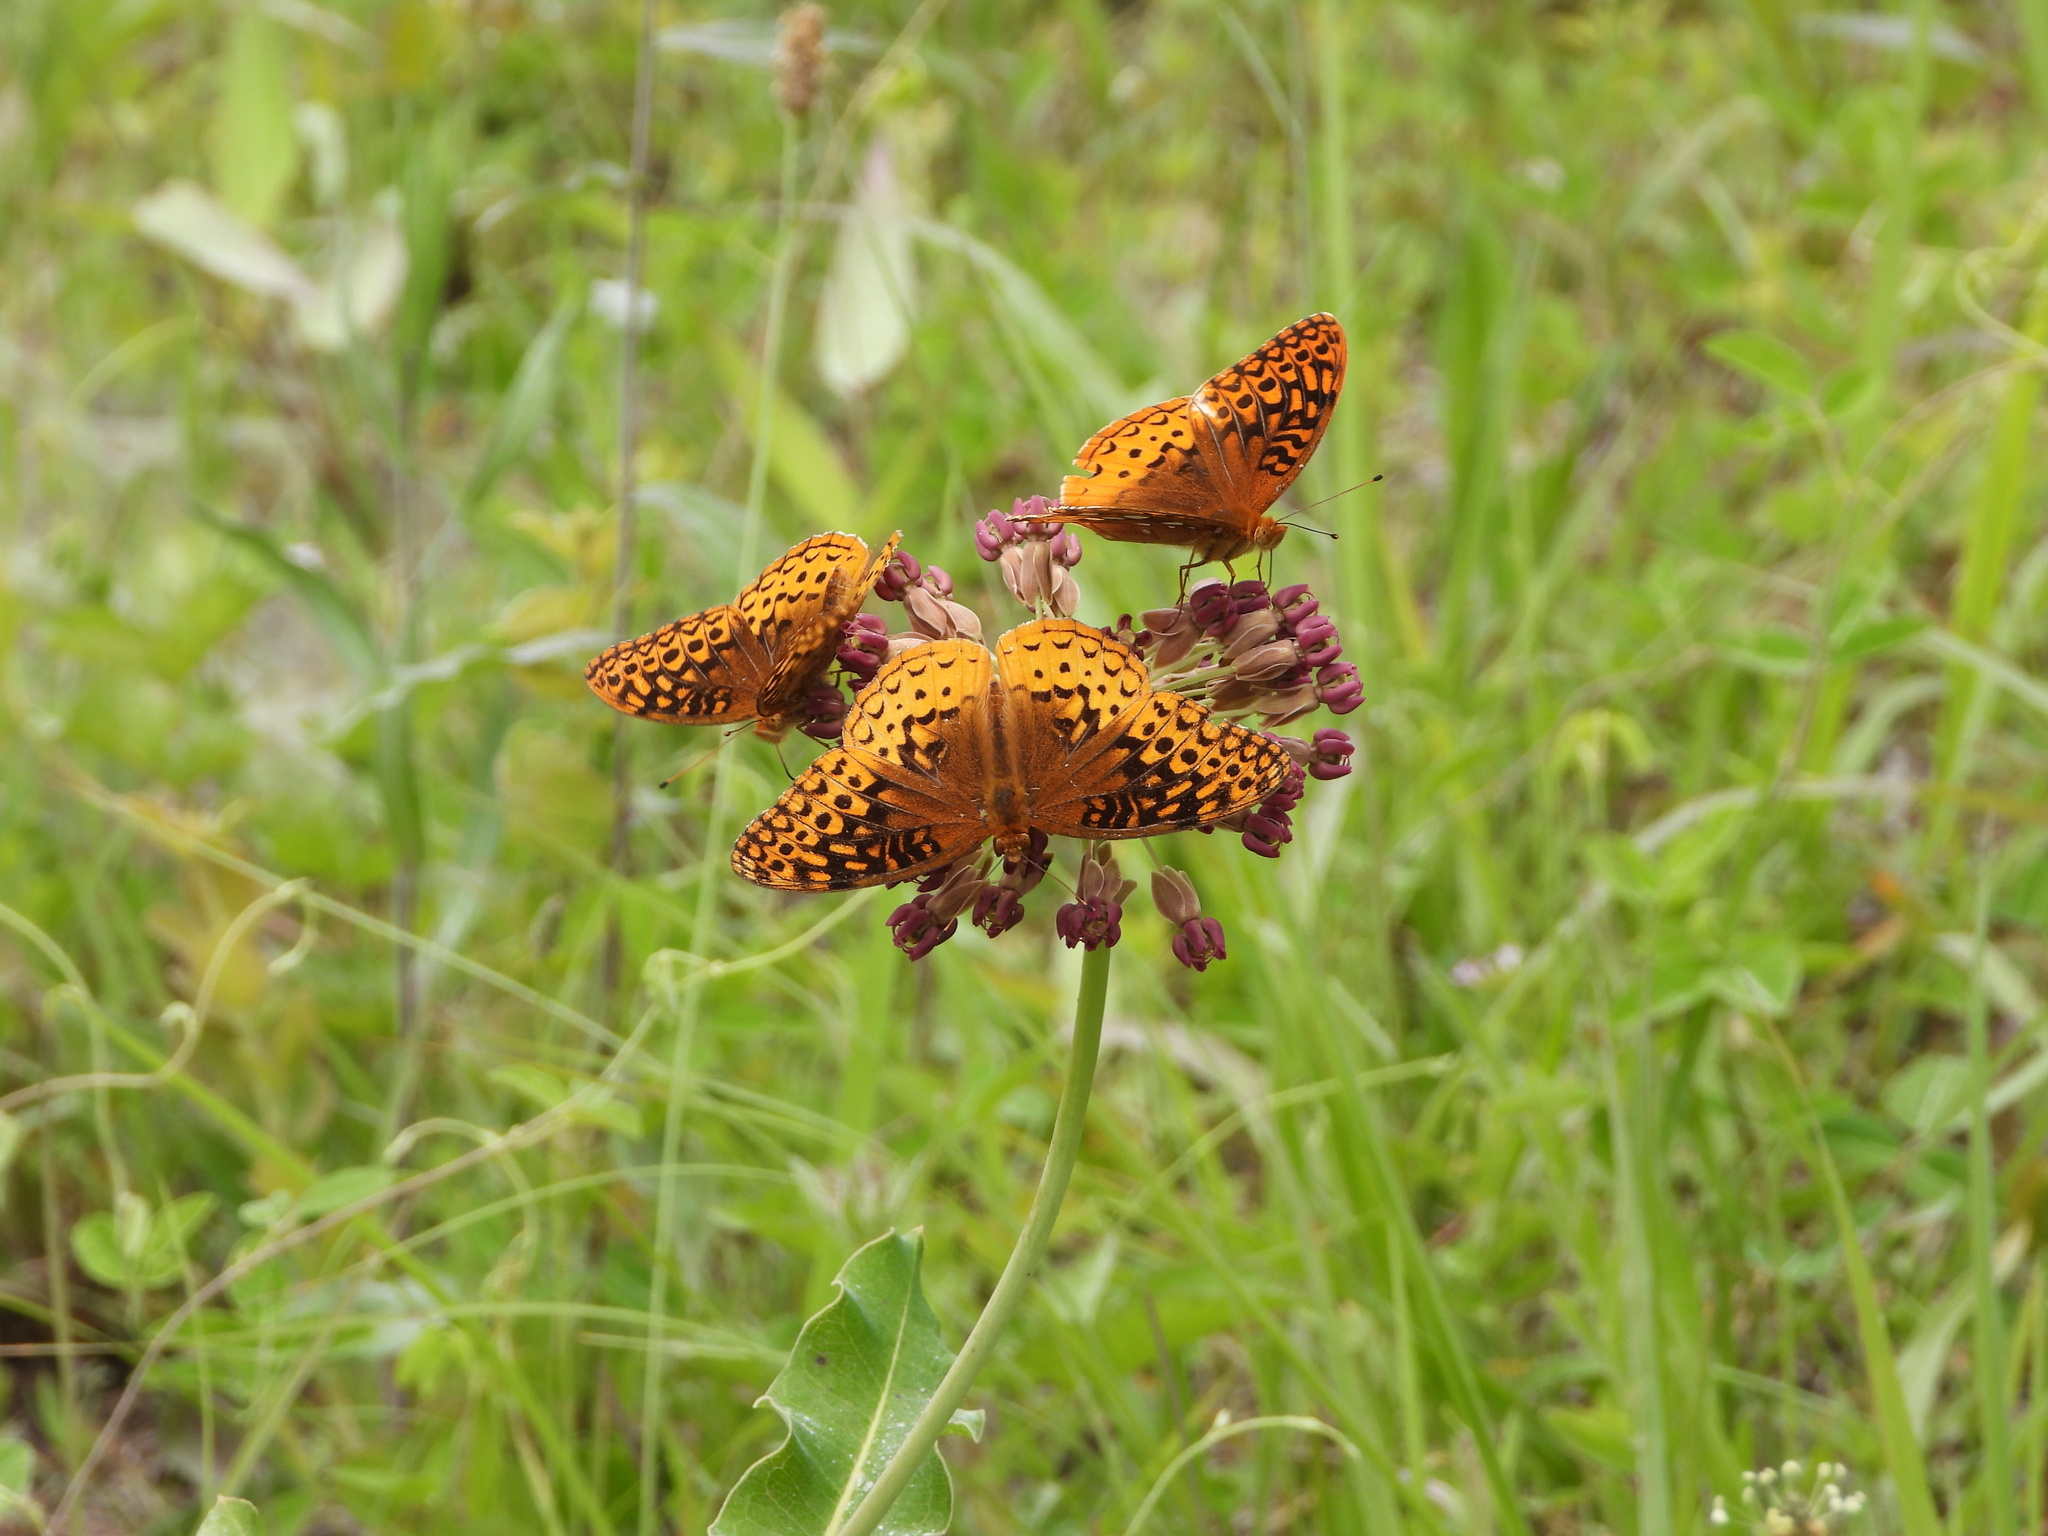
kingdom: Animalia
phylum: Arthropoda
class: Insecta
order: Lepidoptera
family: Nymphalidae
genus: Speyeria
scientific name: Speyeria cybele
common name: Great spangled fritillary
